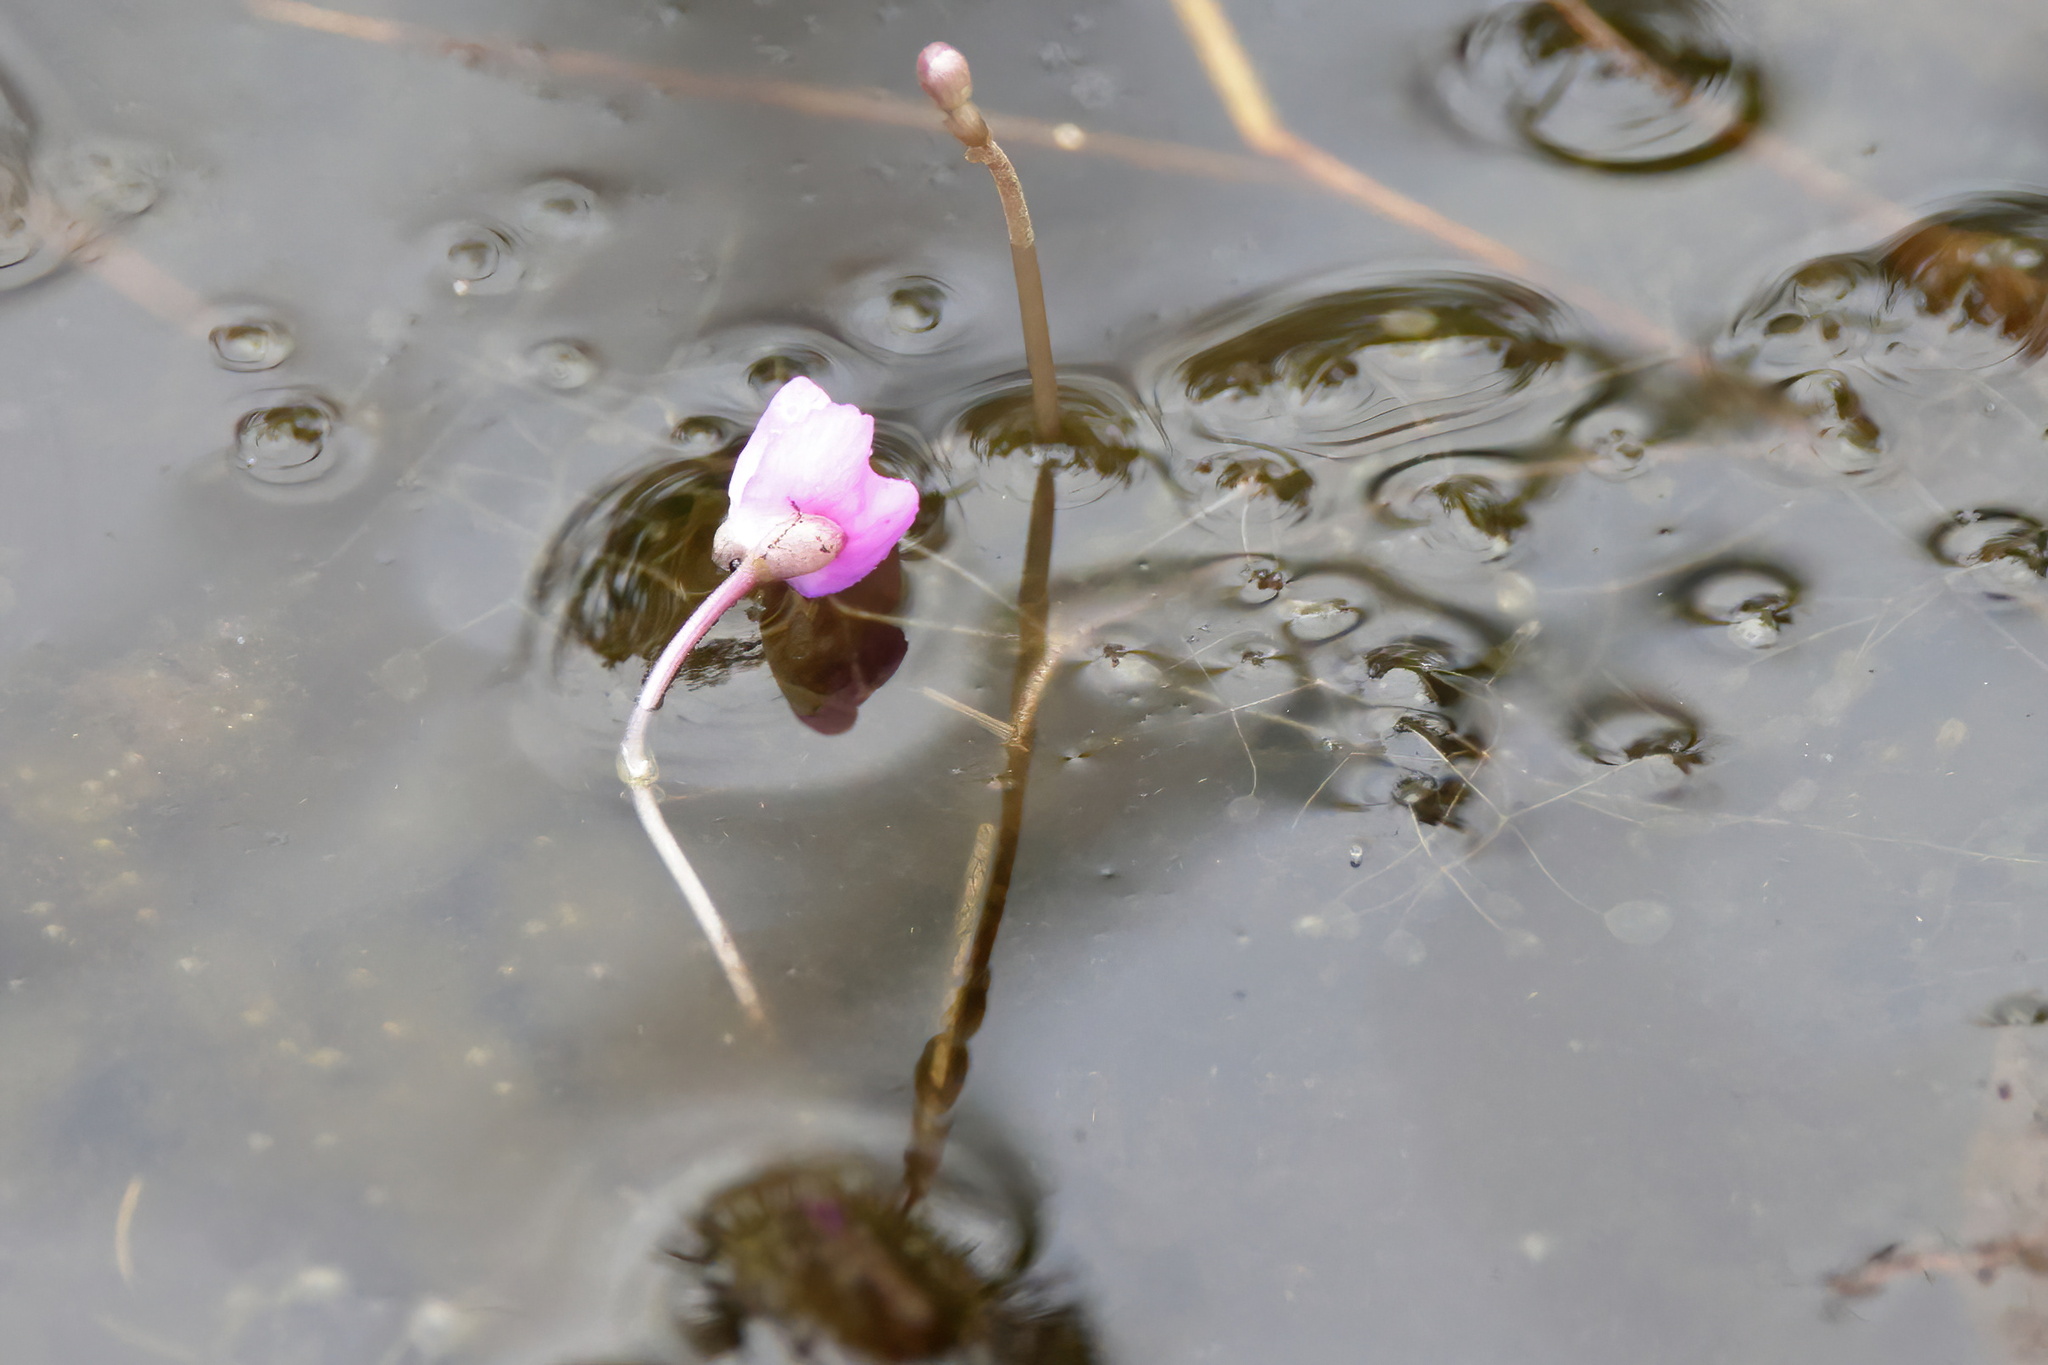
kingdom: Plantae
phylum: Tracheophyta
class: Magnoliopsida
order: Lamiales
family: Lentibulariaceae
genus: Utricularia
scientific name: Utricularia purpurea
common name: Eastern purple bladderwort
